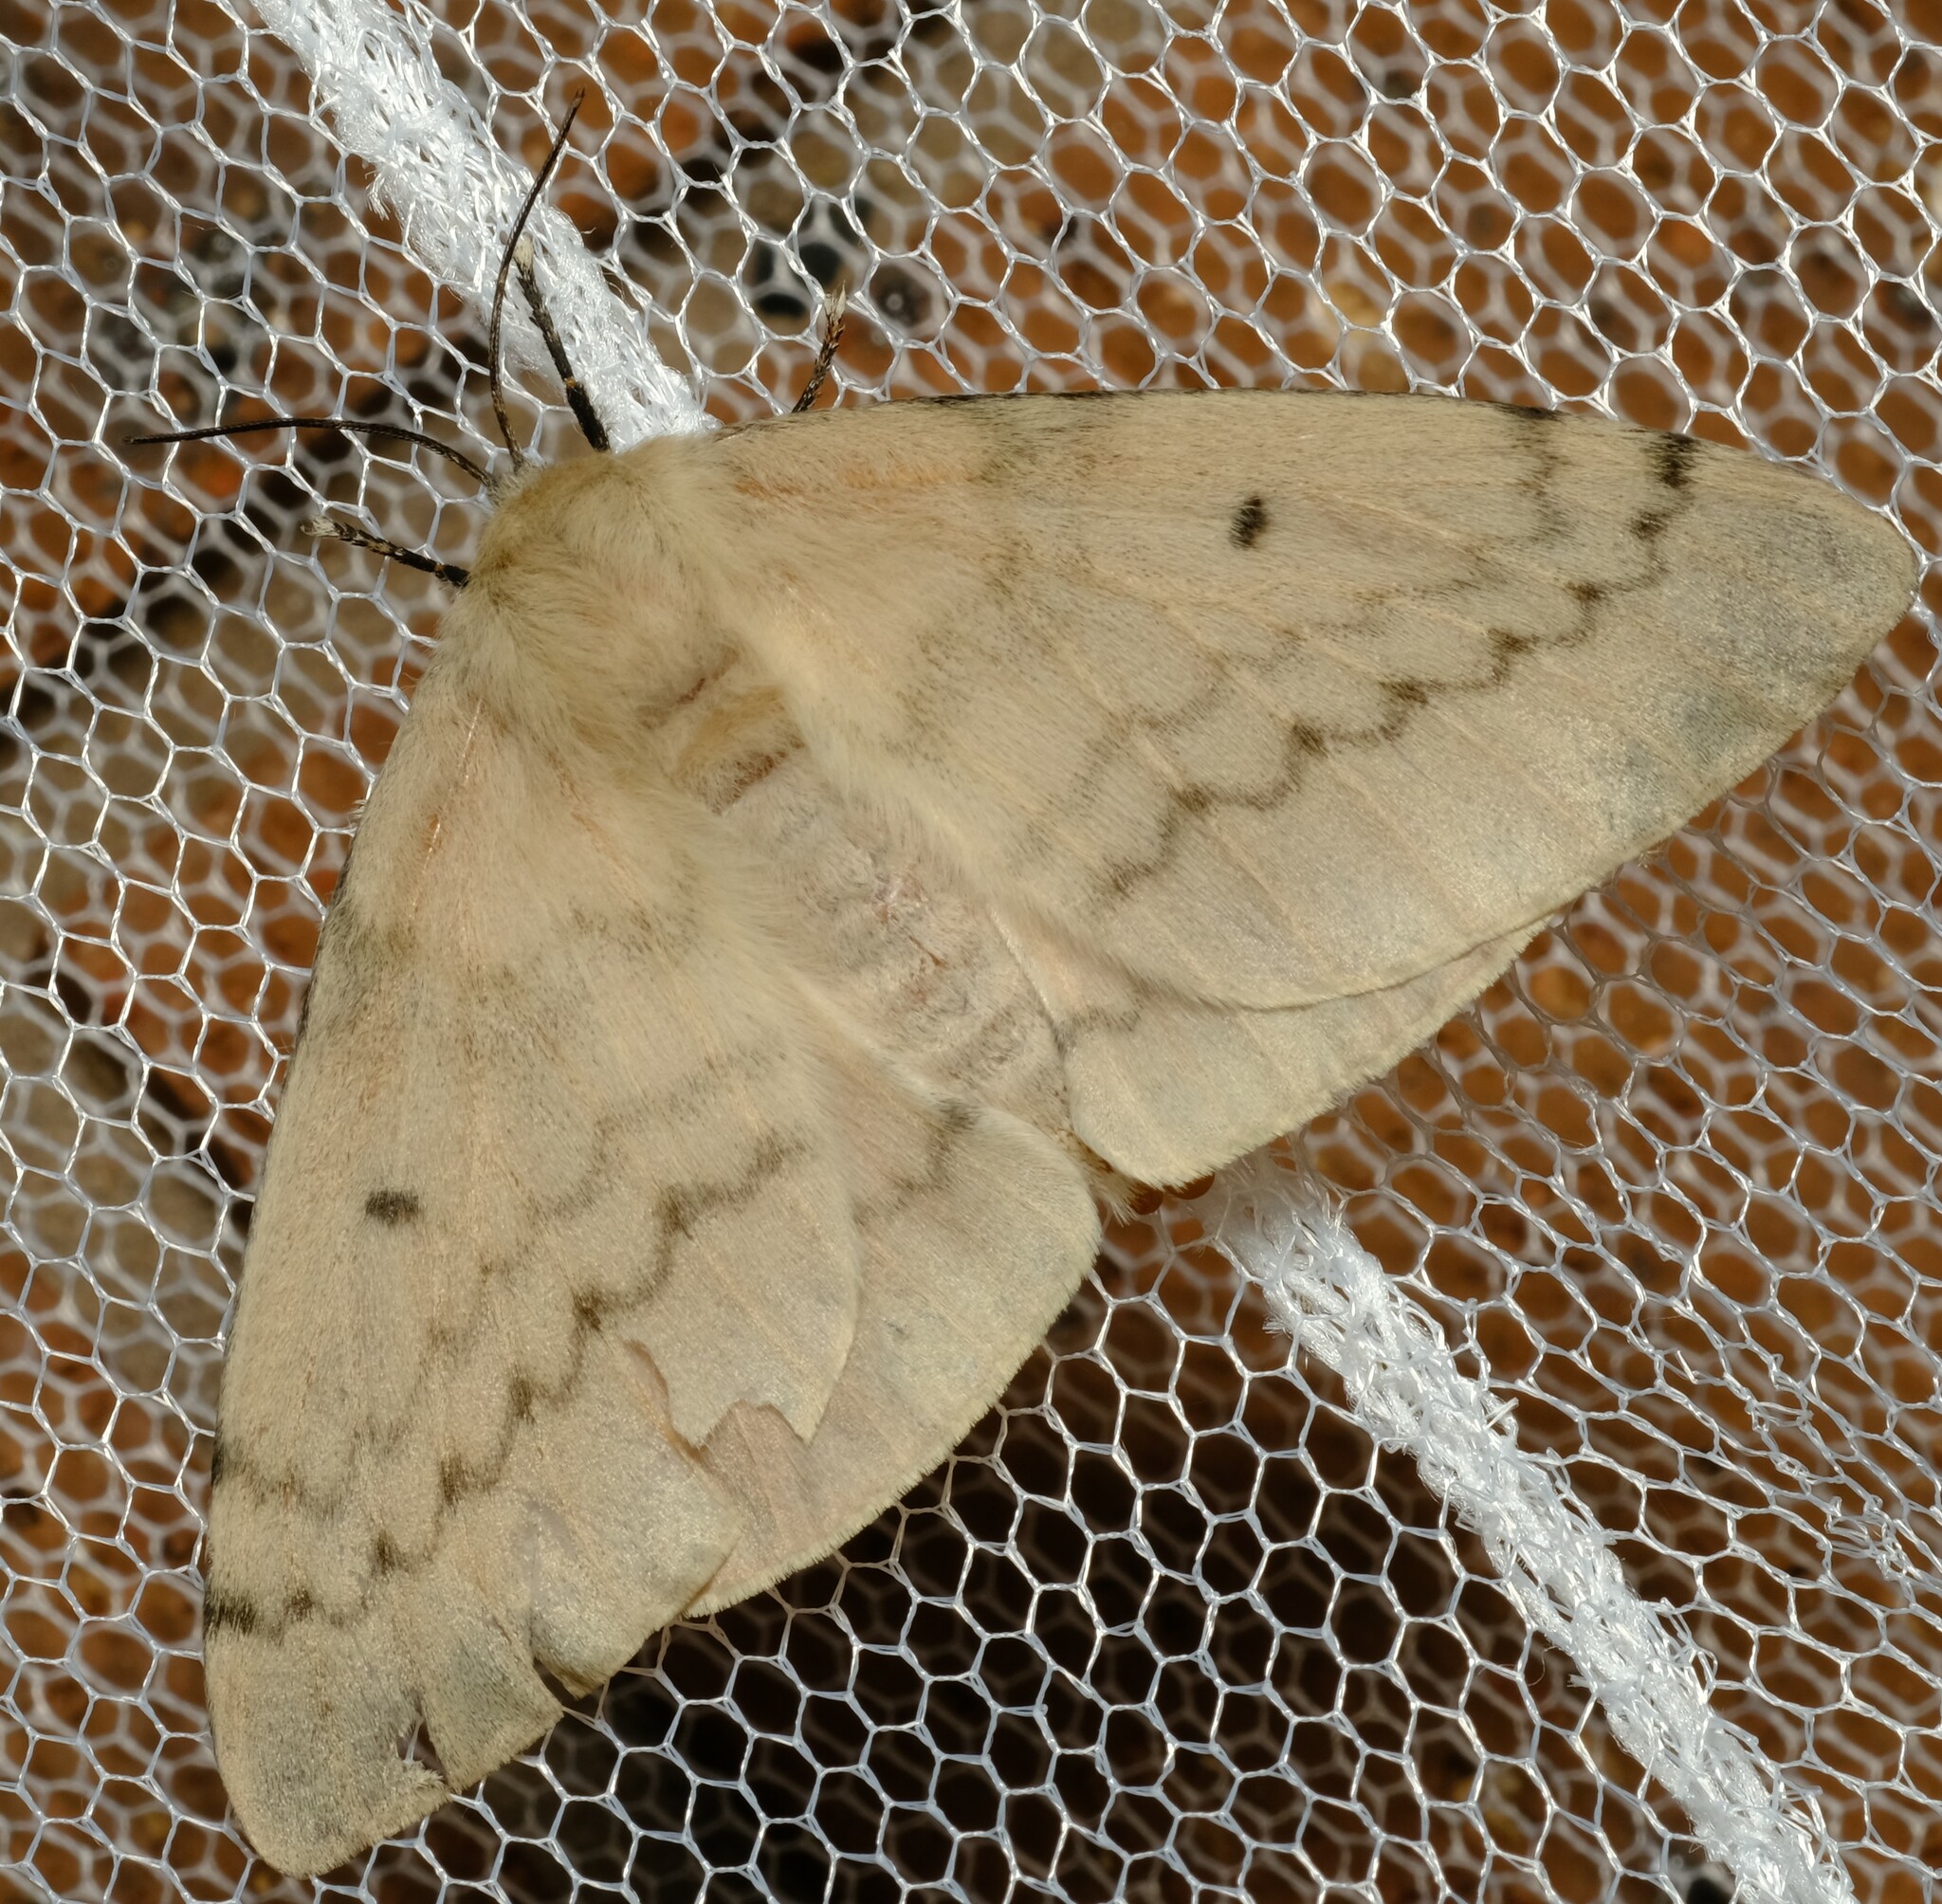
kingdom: Animalia
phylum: Arthropoda
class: Insecta
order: Lepidoptera
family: Anthelidae
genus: Chenuala
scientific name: Chenuala heliaspis
